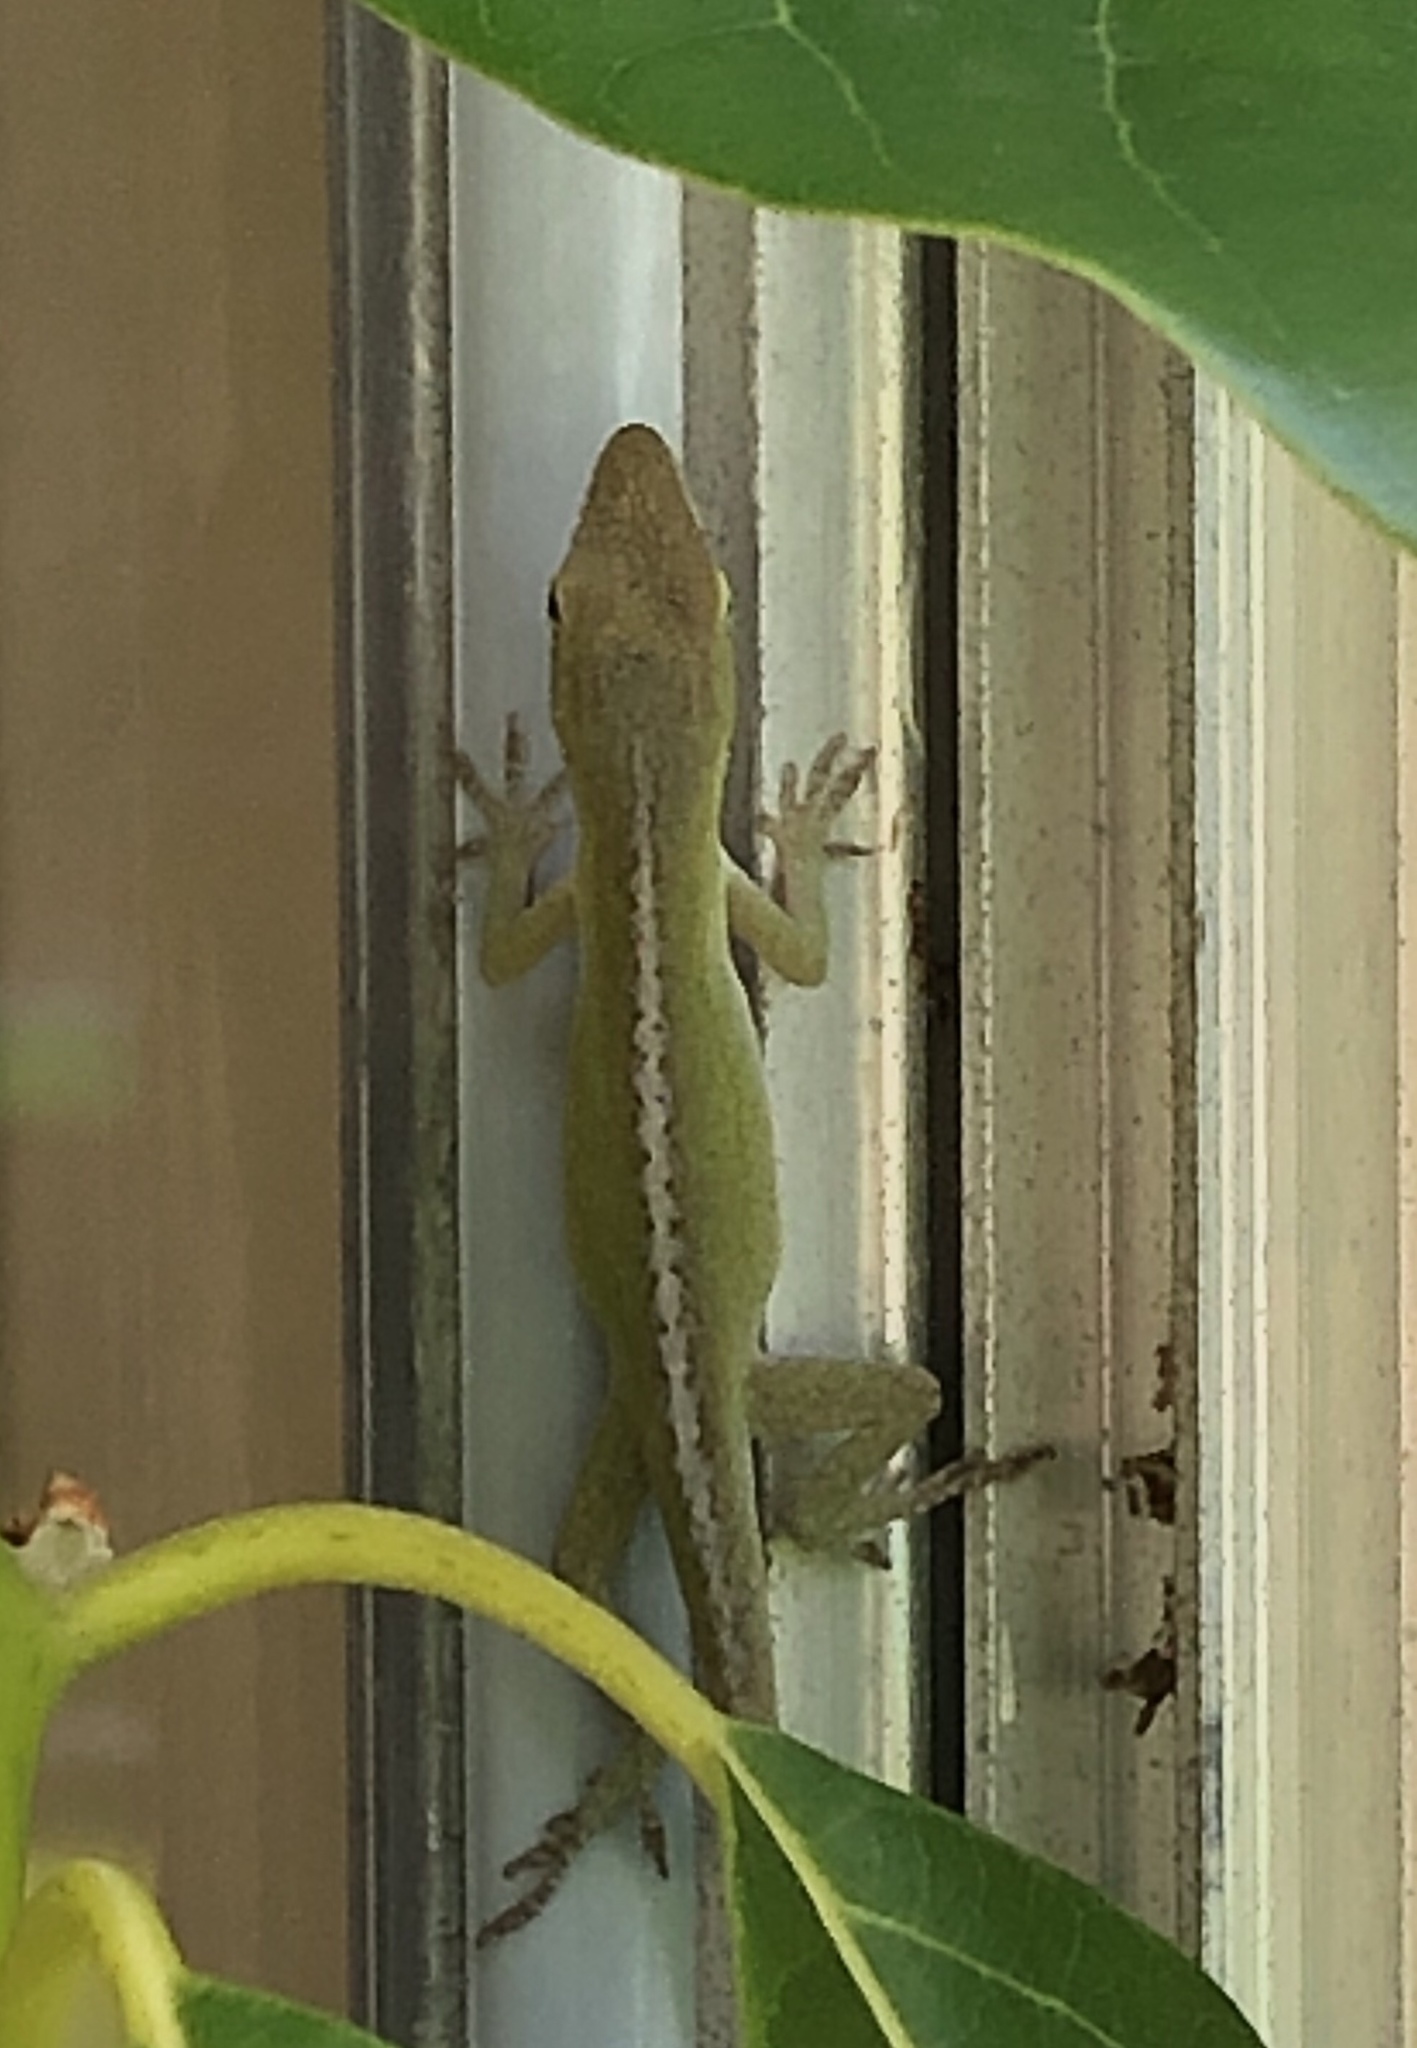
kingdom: Animalia
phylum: Chordata
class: Squamata
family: Dactyloidae
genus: Anolis
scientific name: Anolis carolinensis
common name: Green anole
